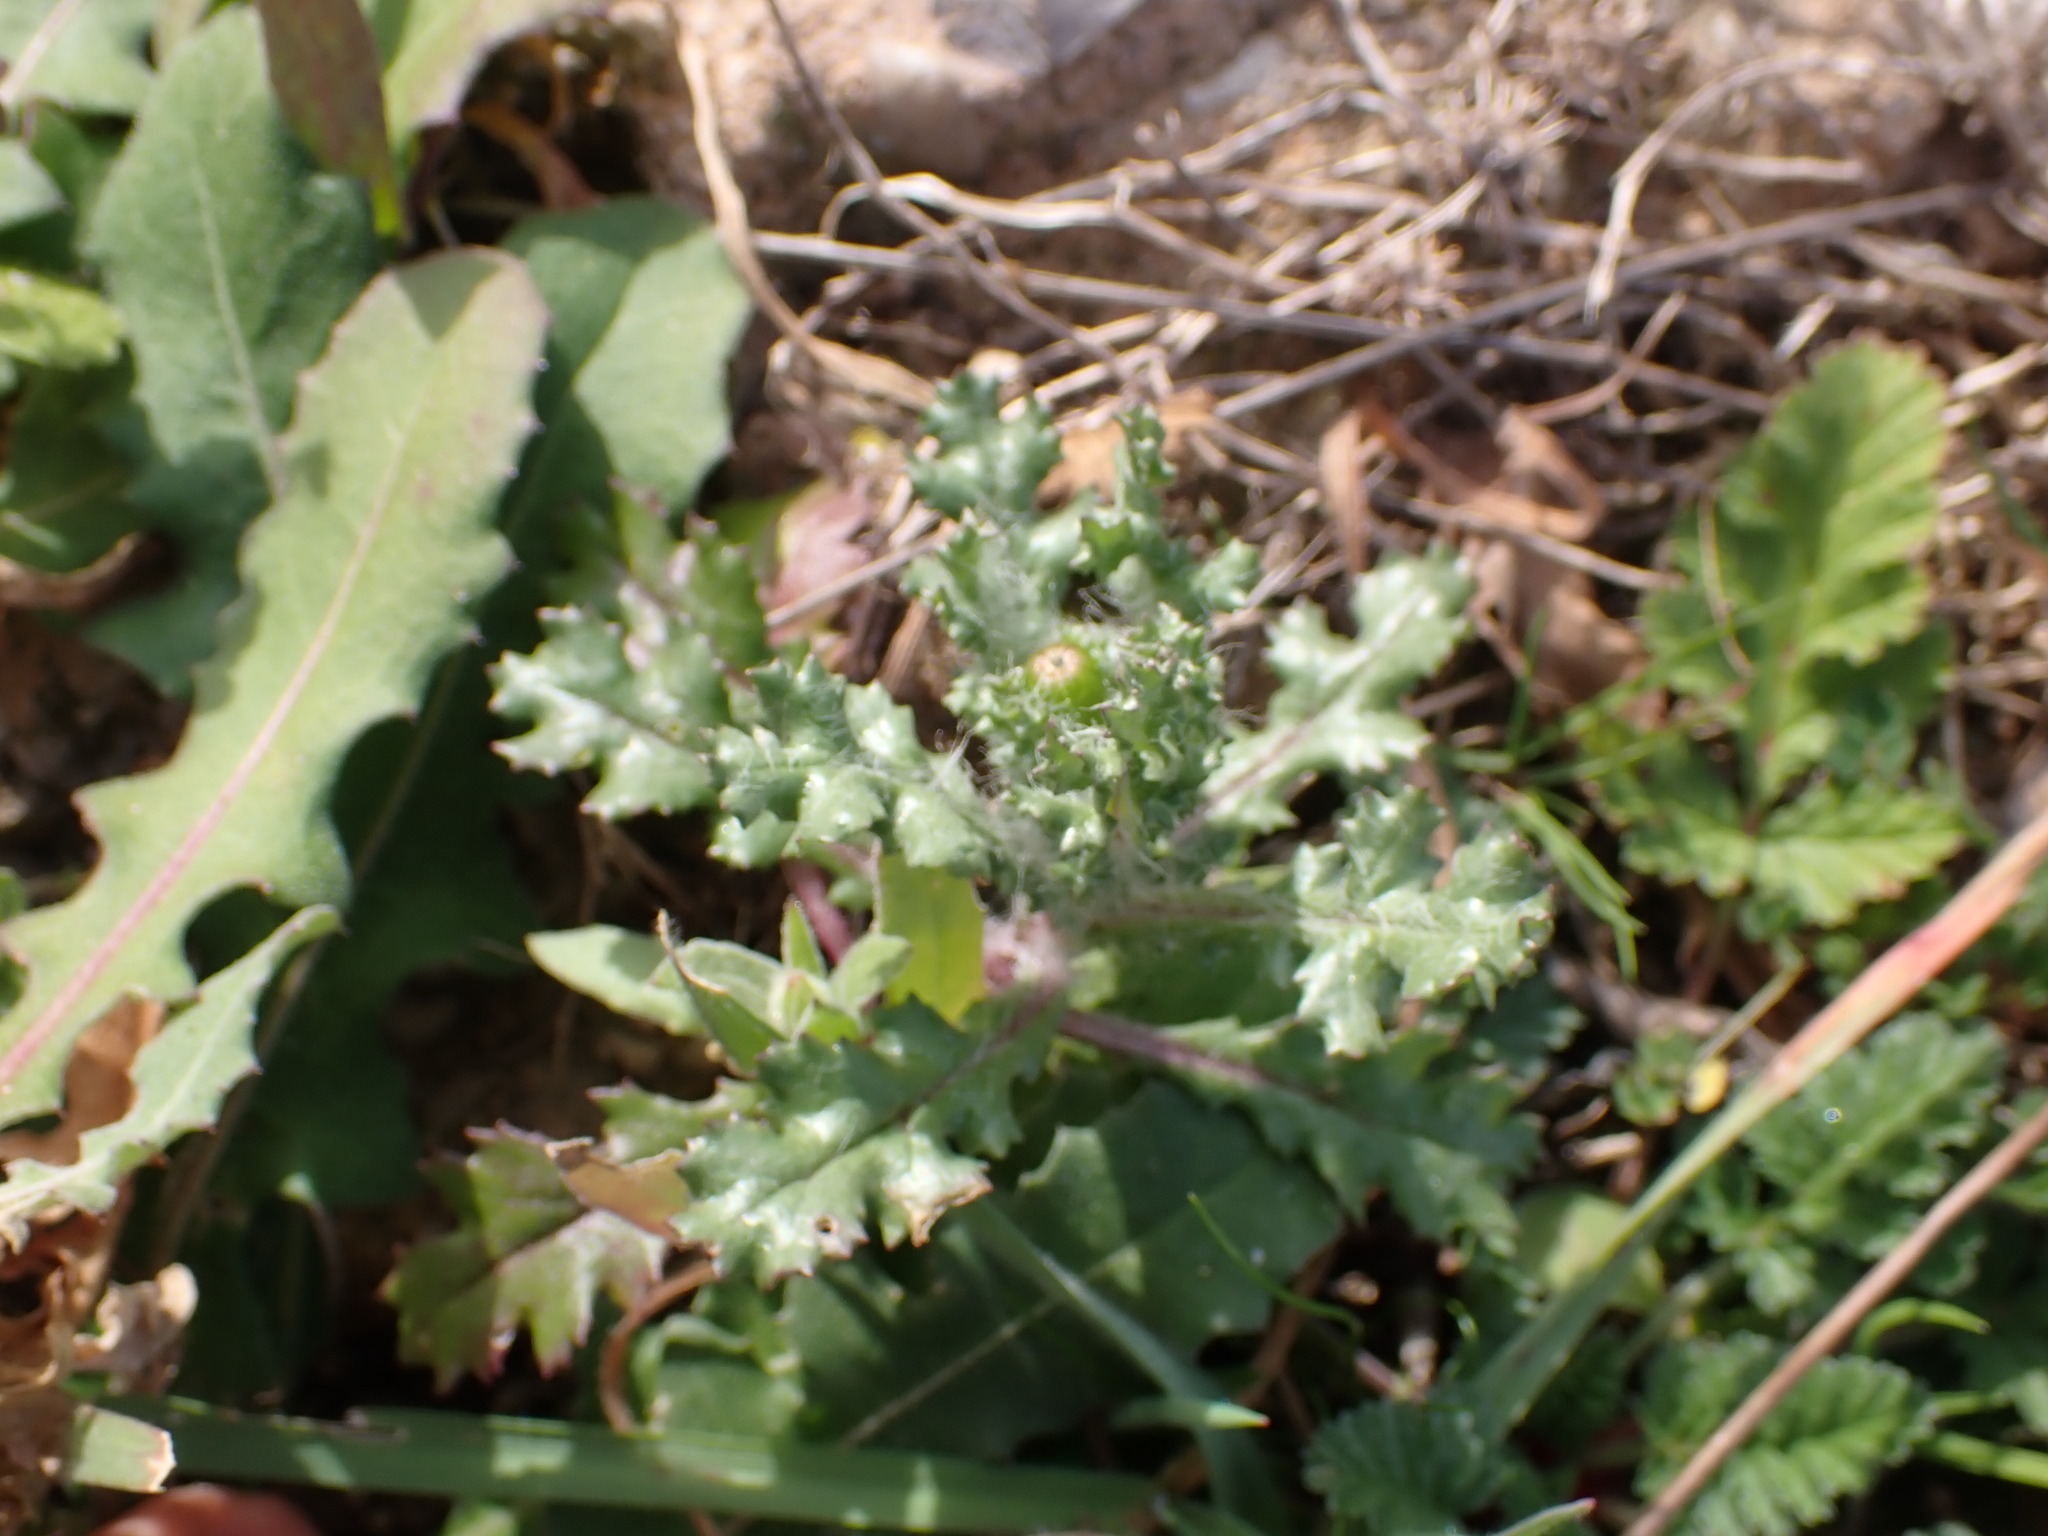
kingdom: Plantae
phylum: Tracheophyta
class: Magnoliopsida
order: Asterales
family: Asteraceae
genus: Senecio
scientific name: Senecio vulgaris
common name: Old-man-in-the-spring
